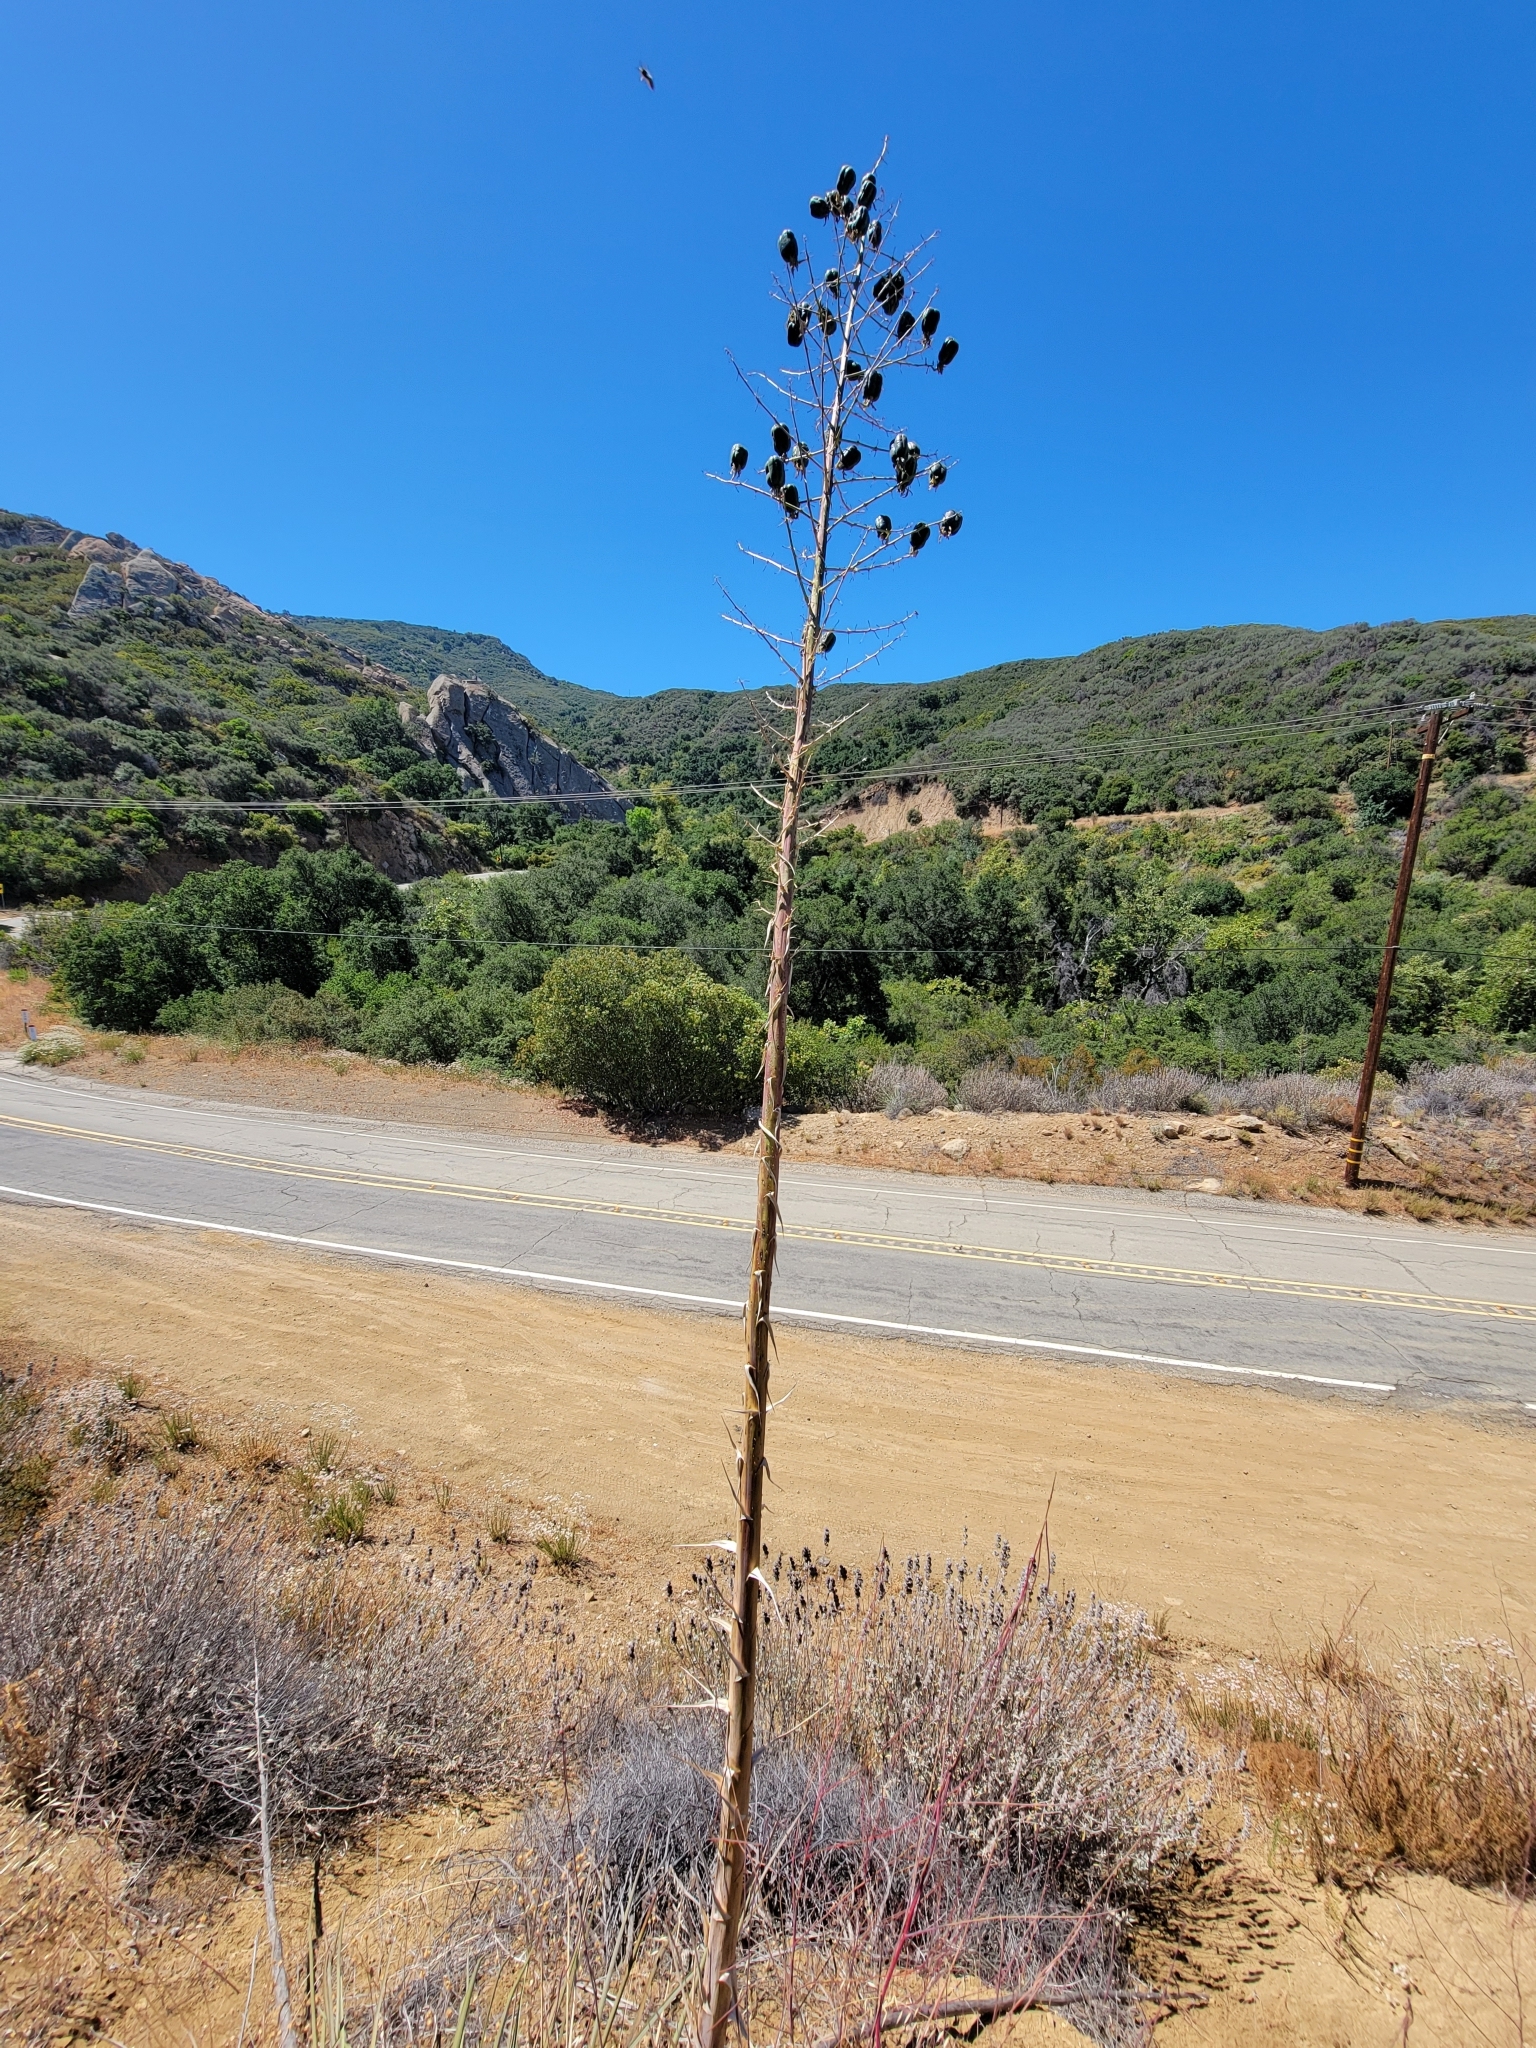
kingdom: Plantae
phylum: Tracheophyta
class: Liliopsida
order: Asparagales
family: Asparagaceae
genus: Hesperoyucca
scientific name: Hesperoyucca whipplei
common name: Our lord's-candle
